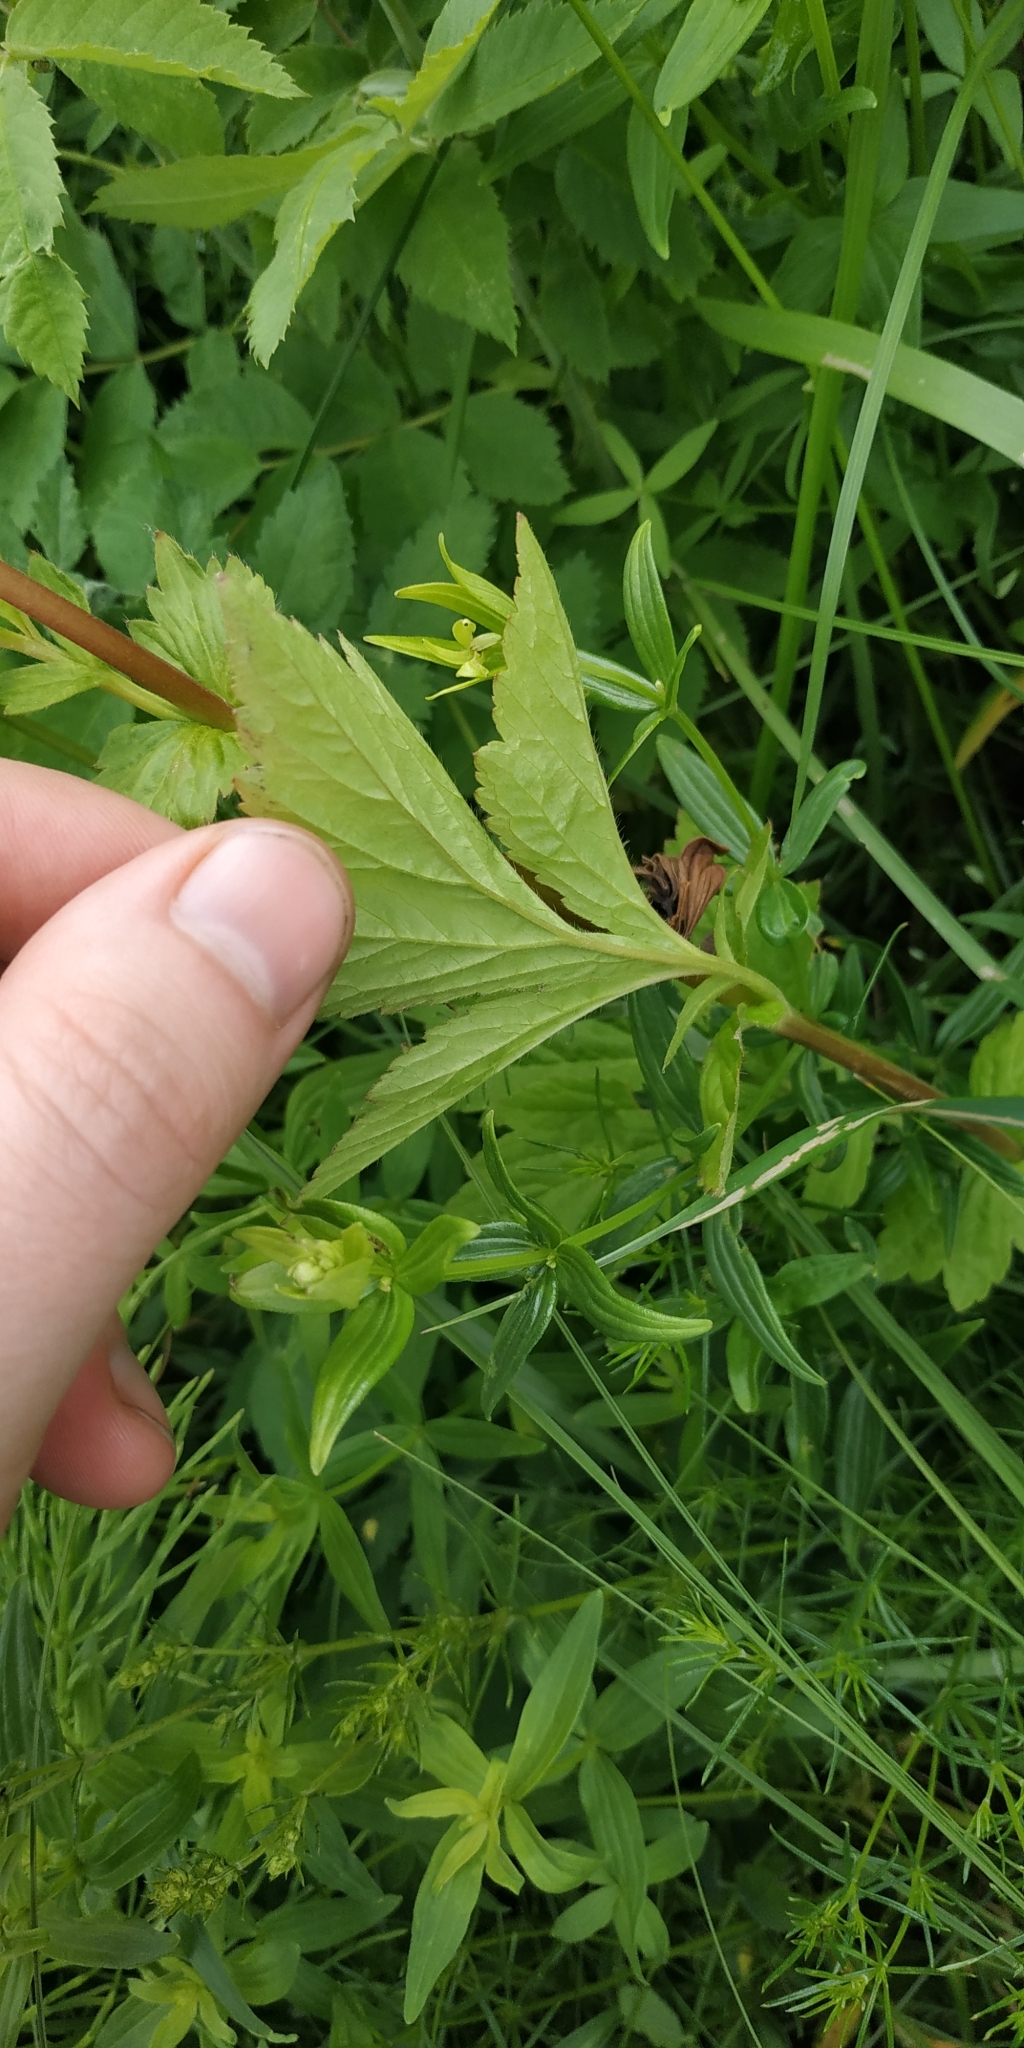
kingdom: Plantae
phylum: Tracheophyta
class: Magnoliopsida
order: Rosales
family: Rosaceae
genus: Geum
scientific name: Geum aleppicum
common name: Yellow avens
